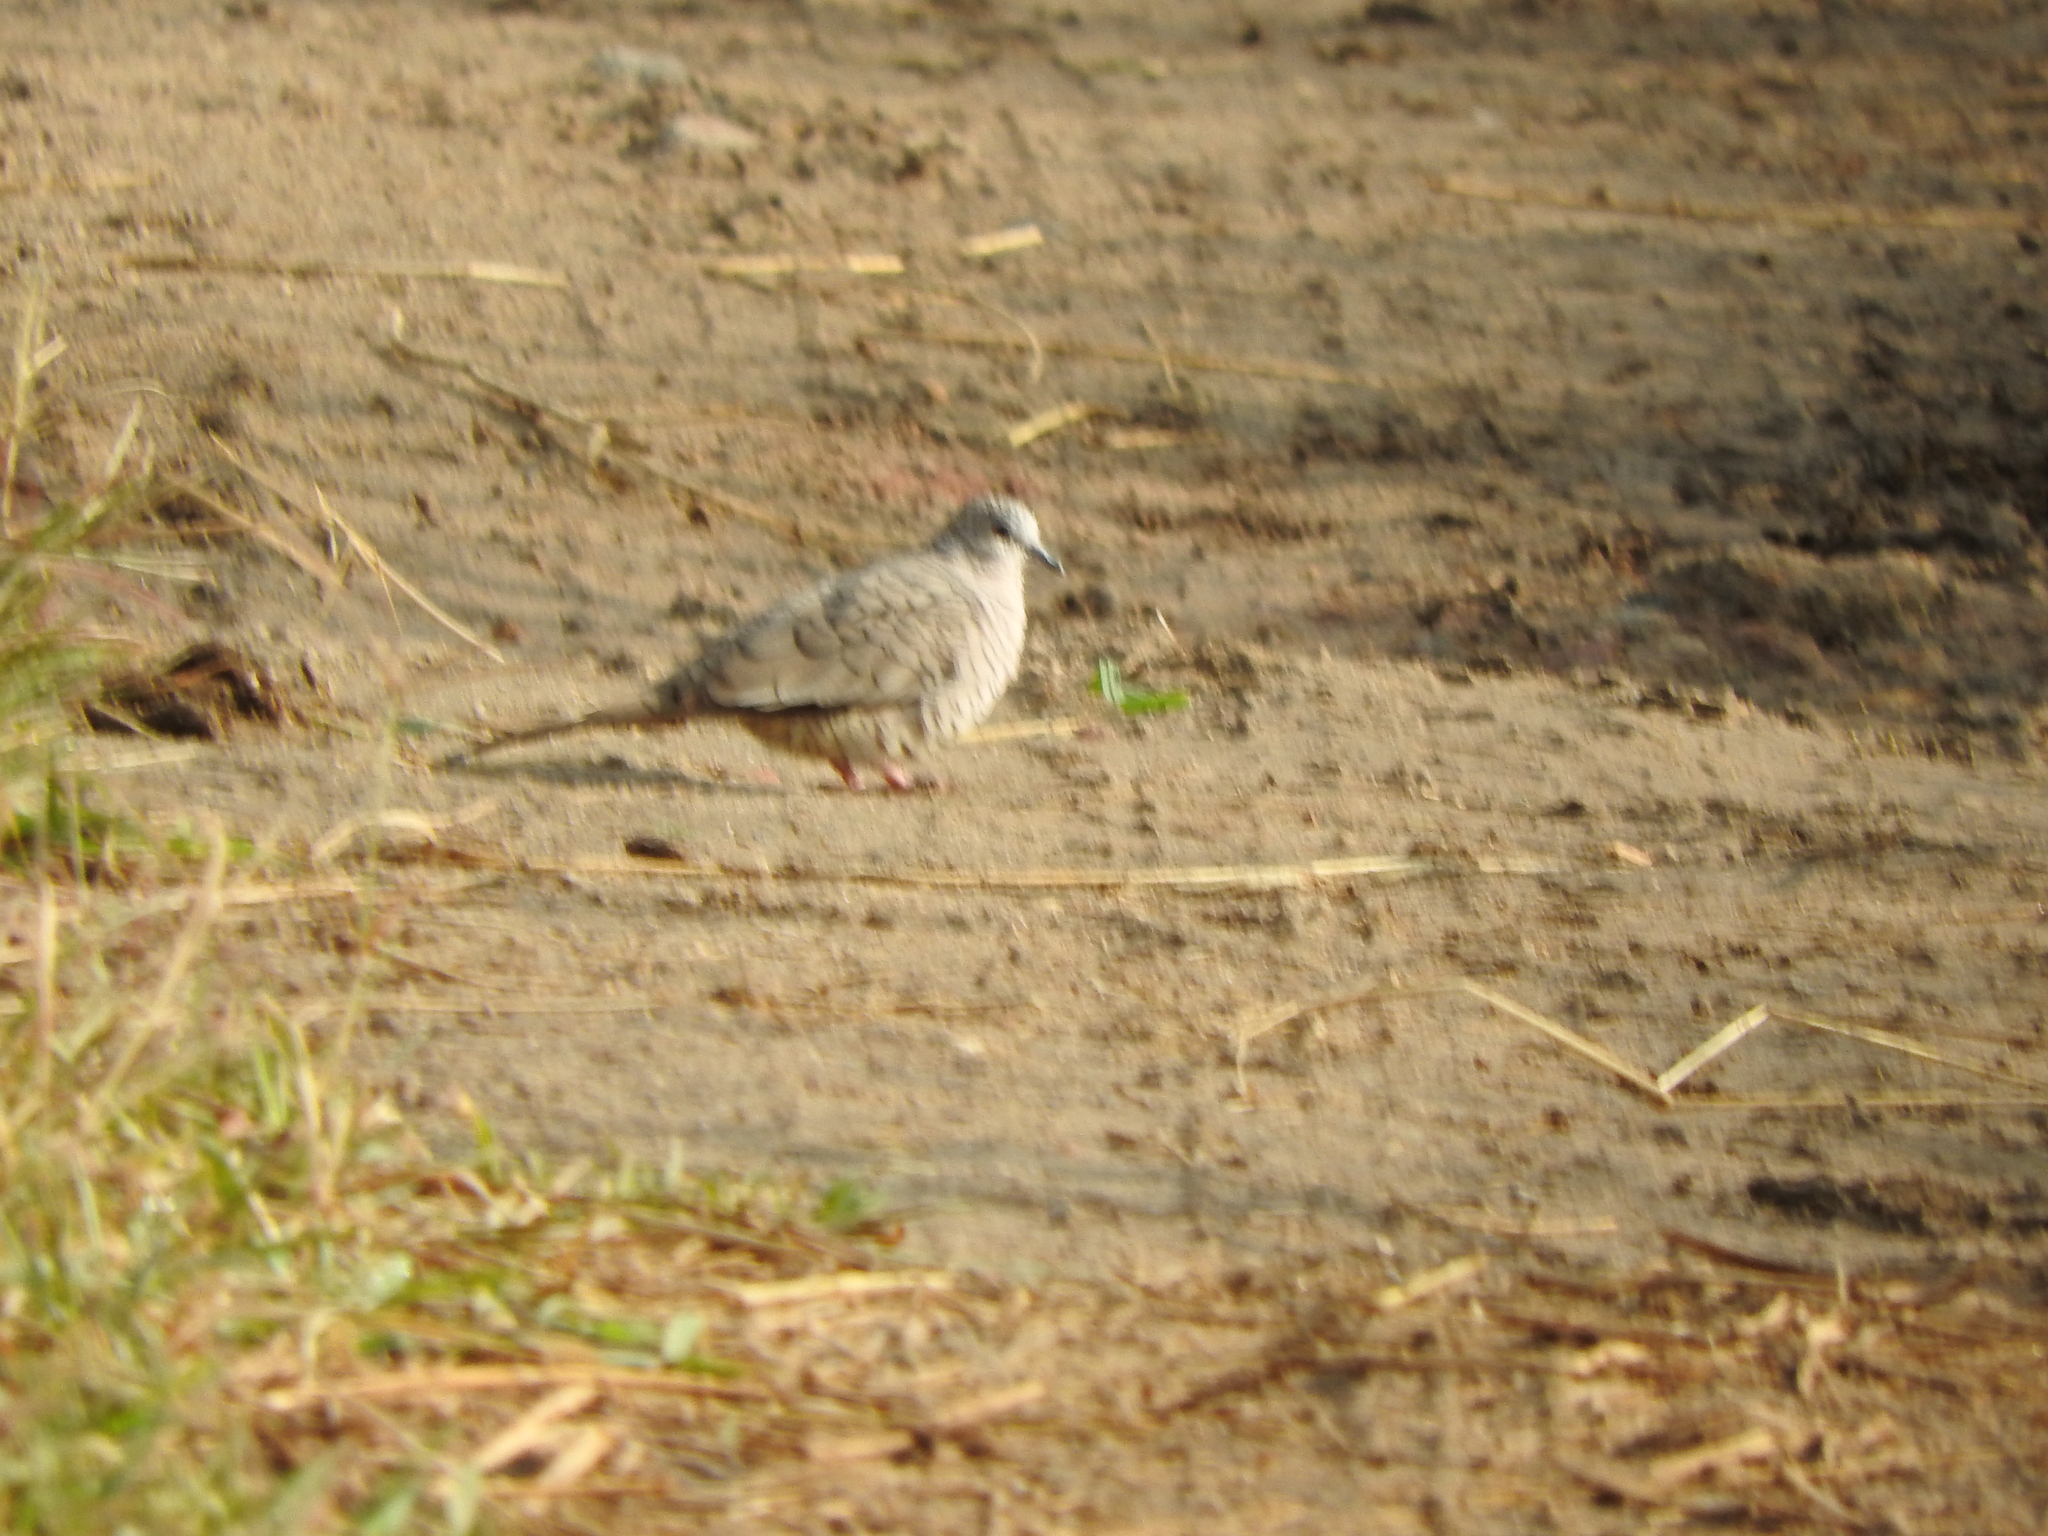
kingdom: Animalia
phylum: Chordata
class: Aves
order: Columbiformes
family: Columbidae
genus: Columbina
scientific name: Columbina inca
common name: Inca dove
